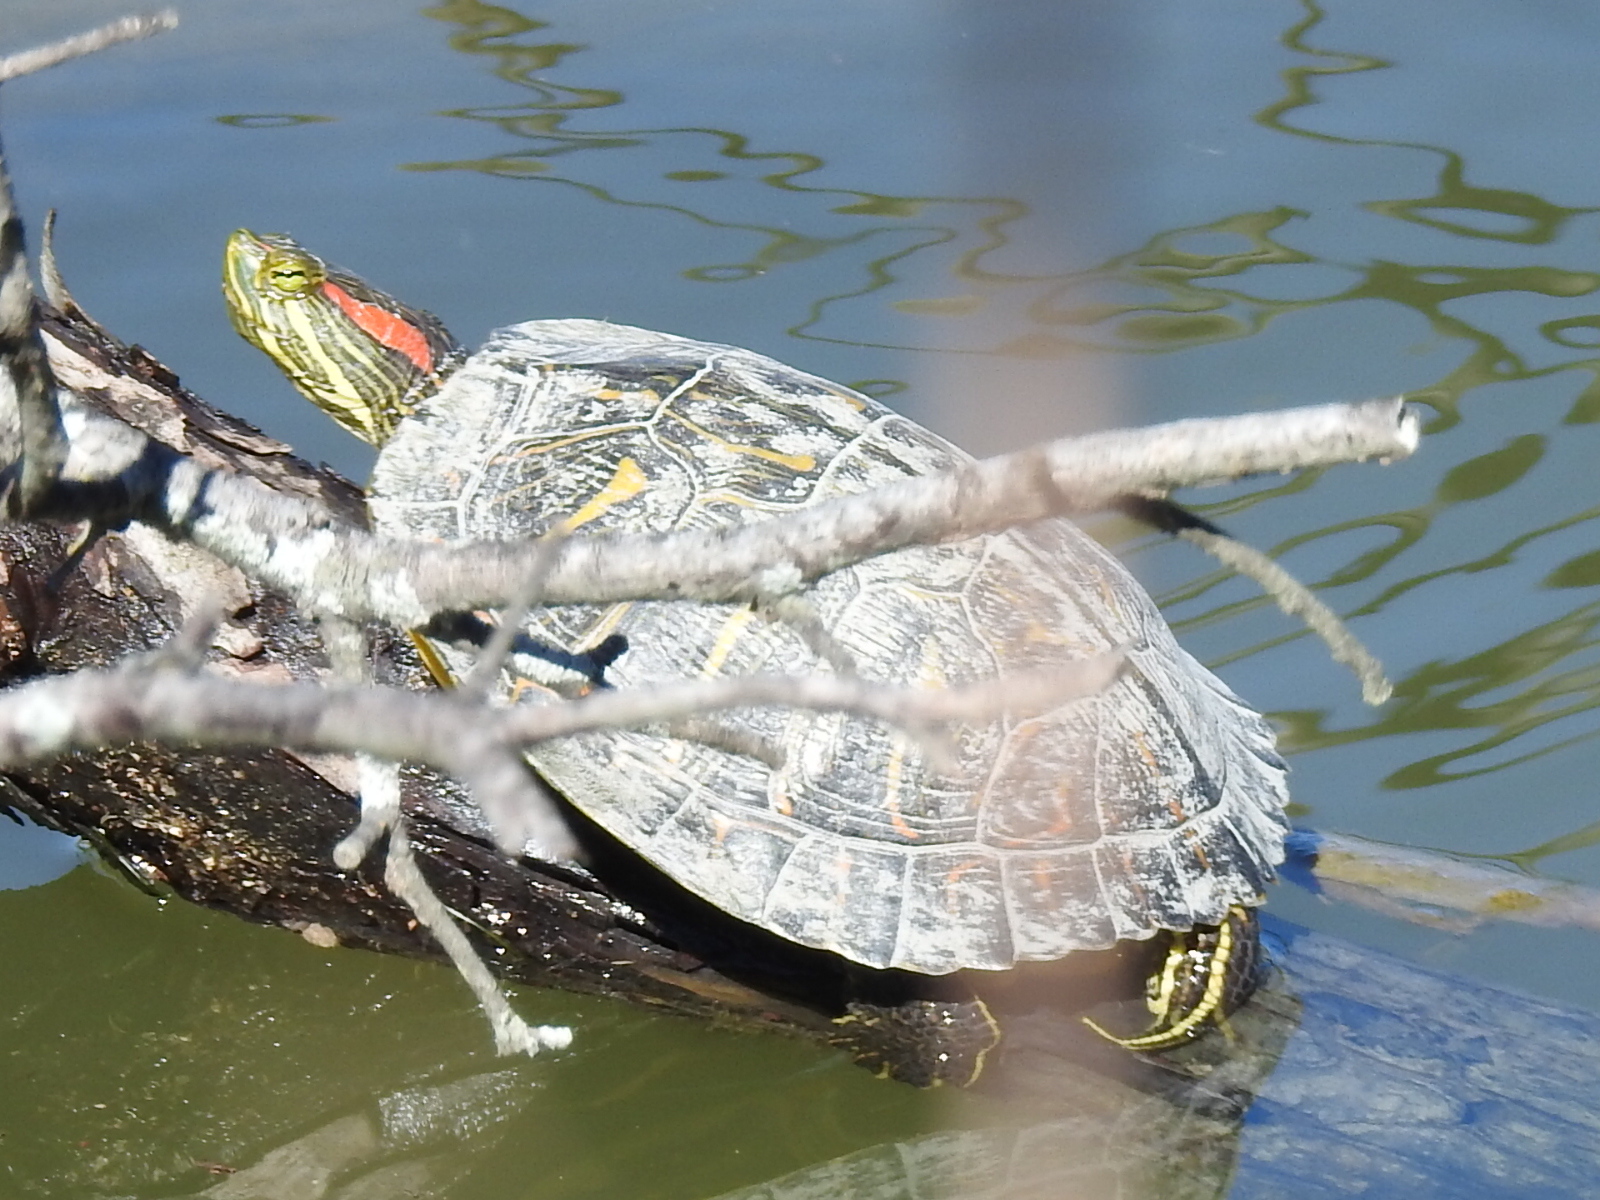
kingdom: Animalia
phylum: Chordata
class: Testudines
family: Emydidae
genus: Trachemys
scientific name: Trachemys scripta
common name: Slider
